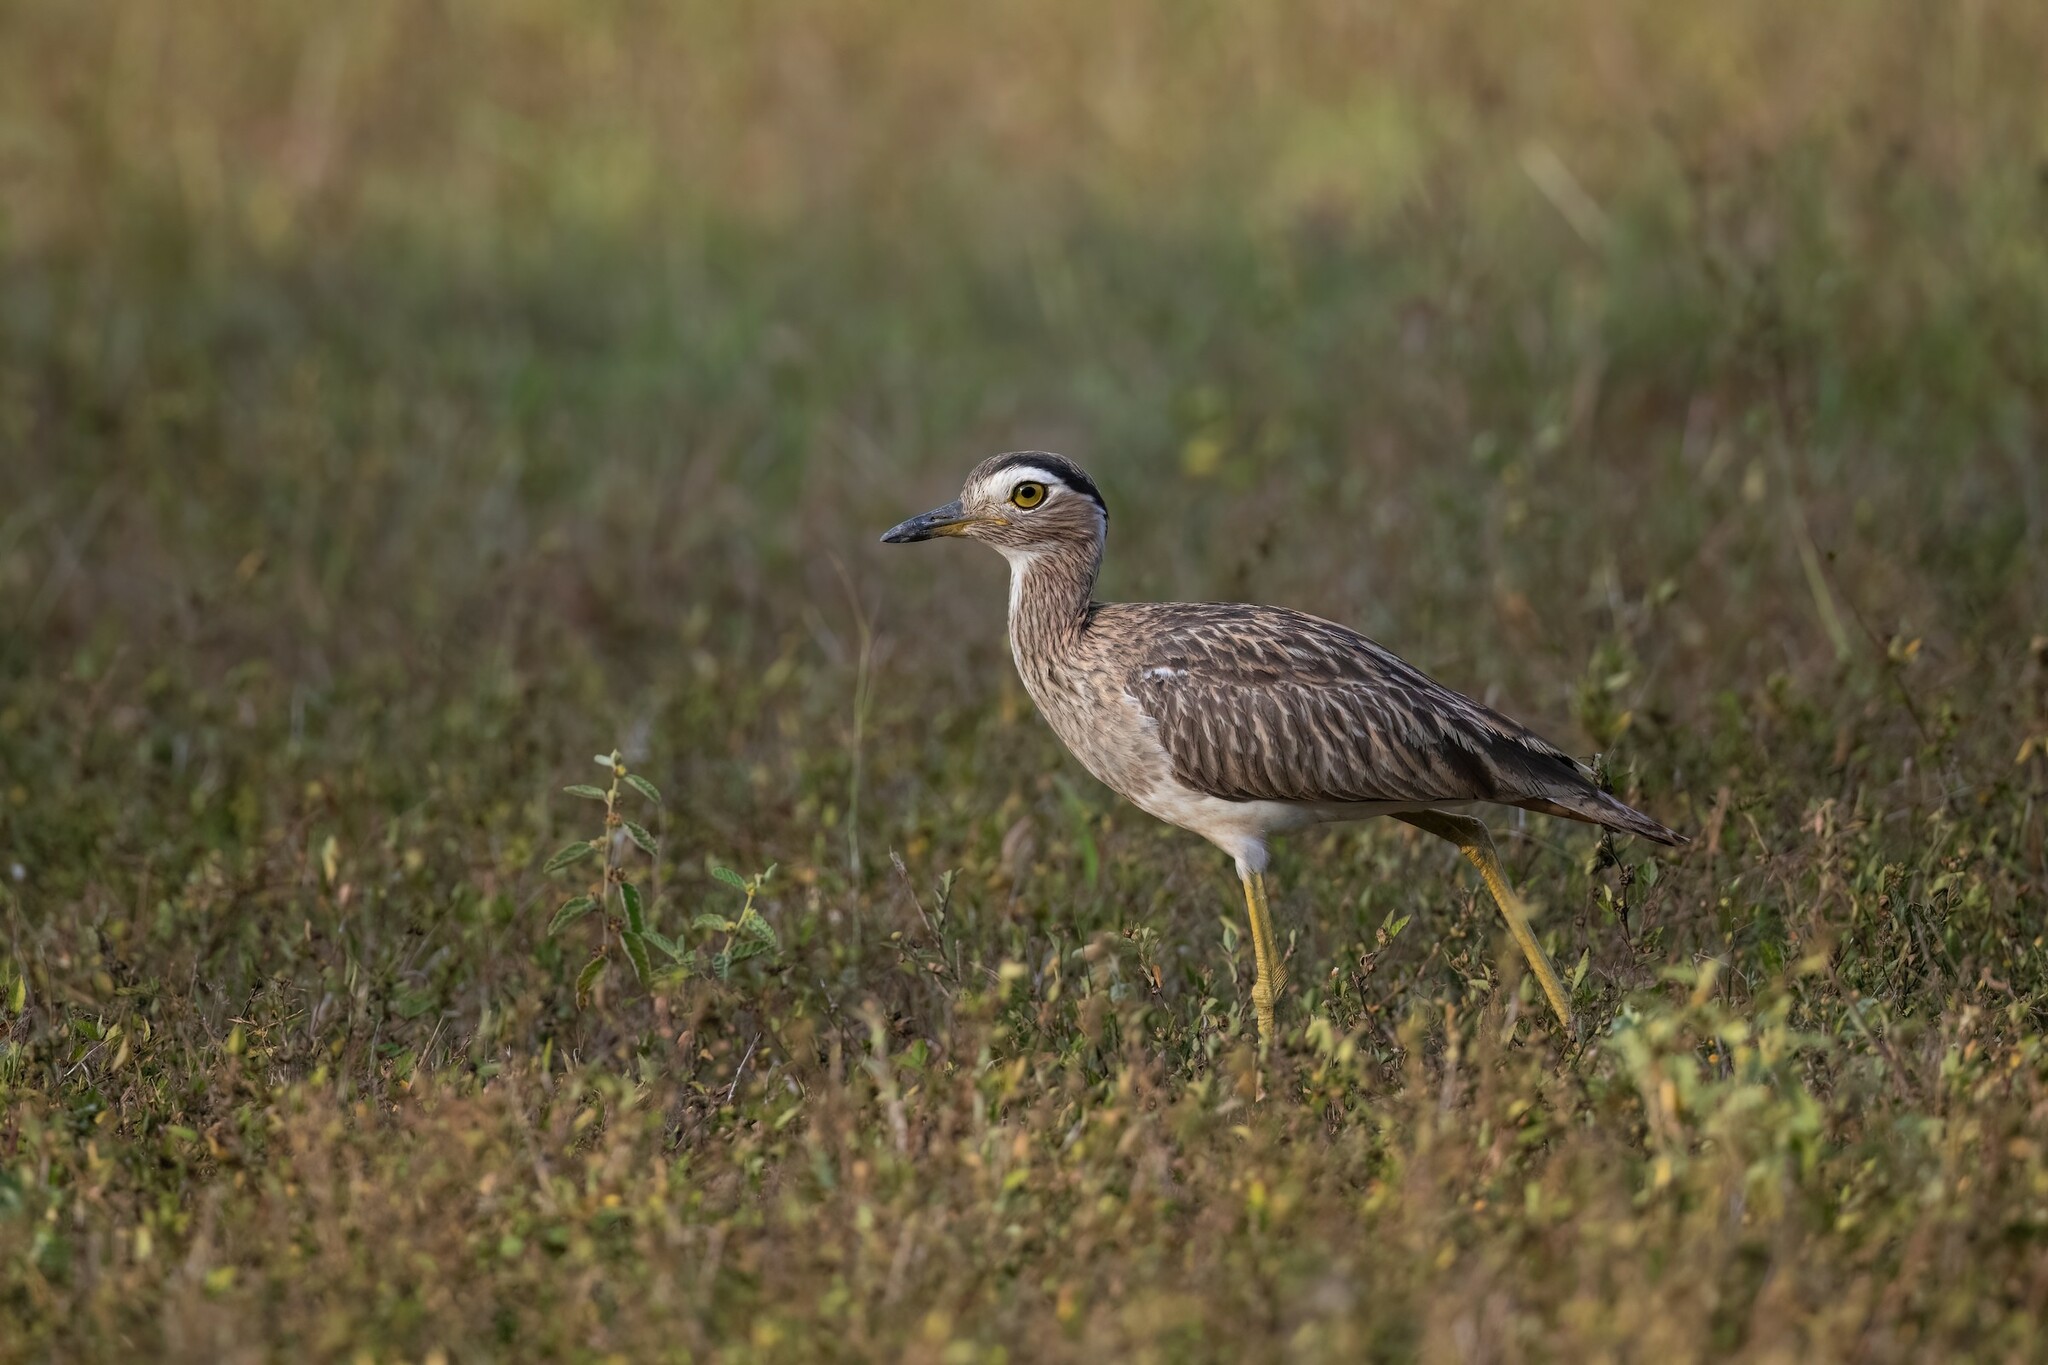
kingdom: Animalia
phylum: Chordata
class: Aves
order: Charadriiformes
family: Burhinidae
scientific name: Burhinidae
